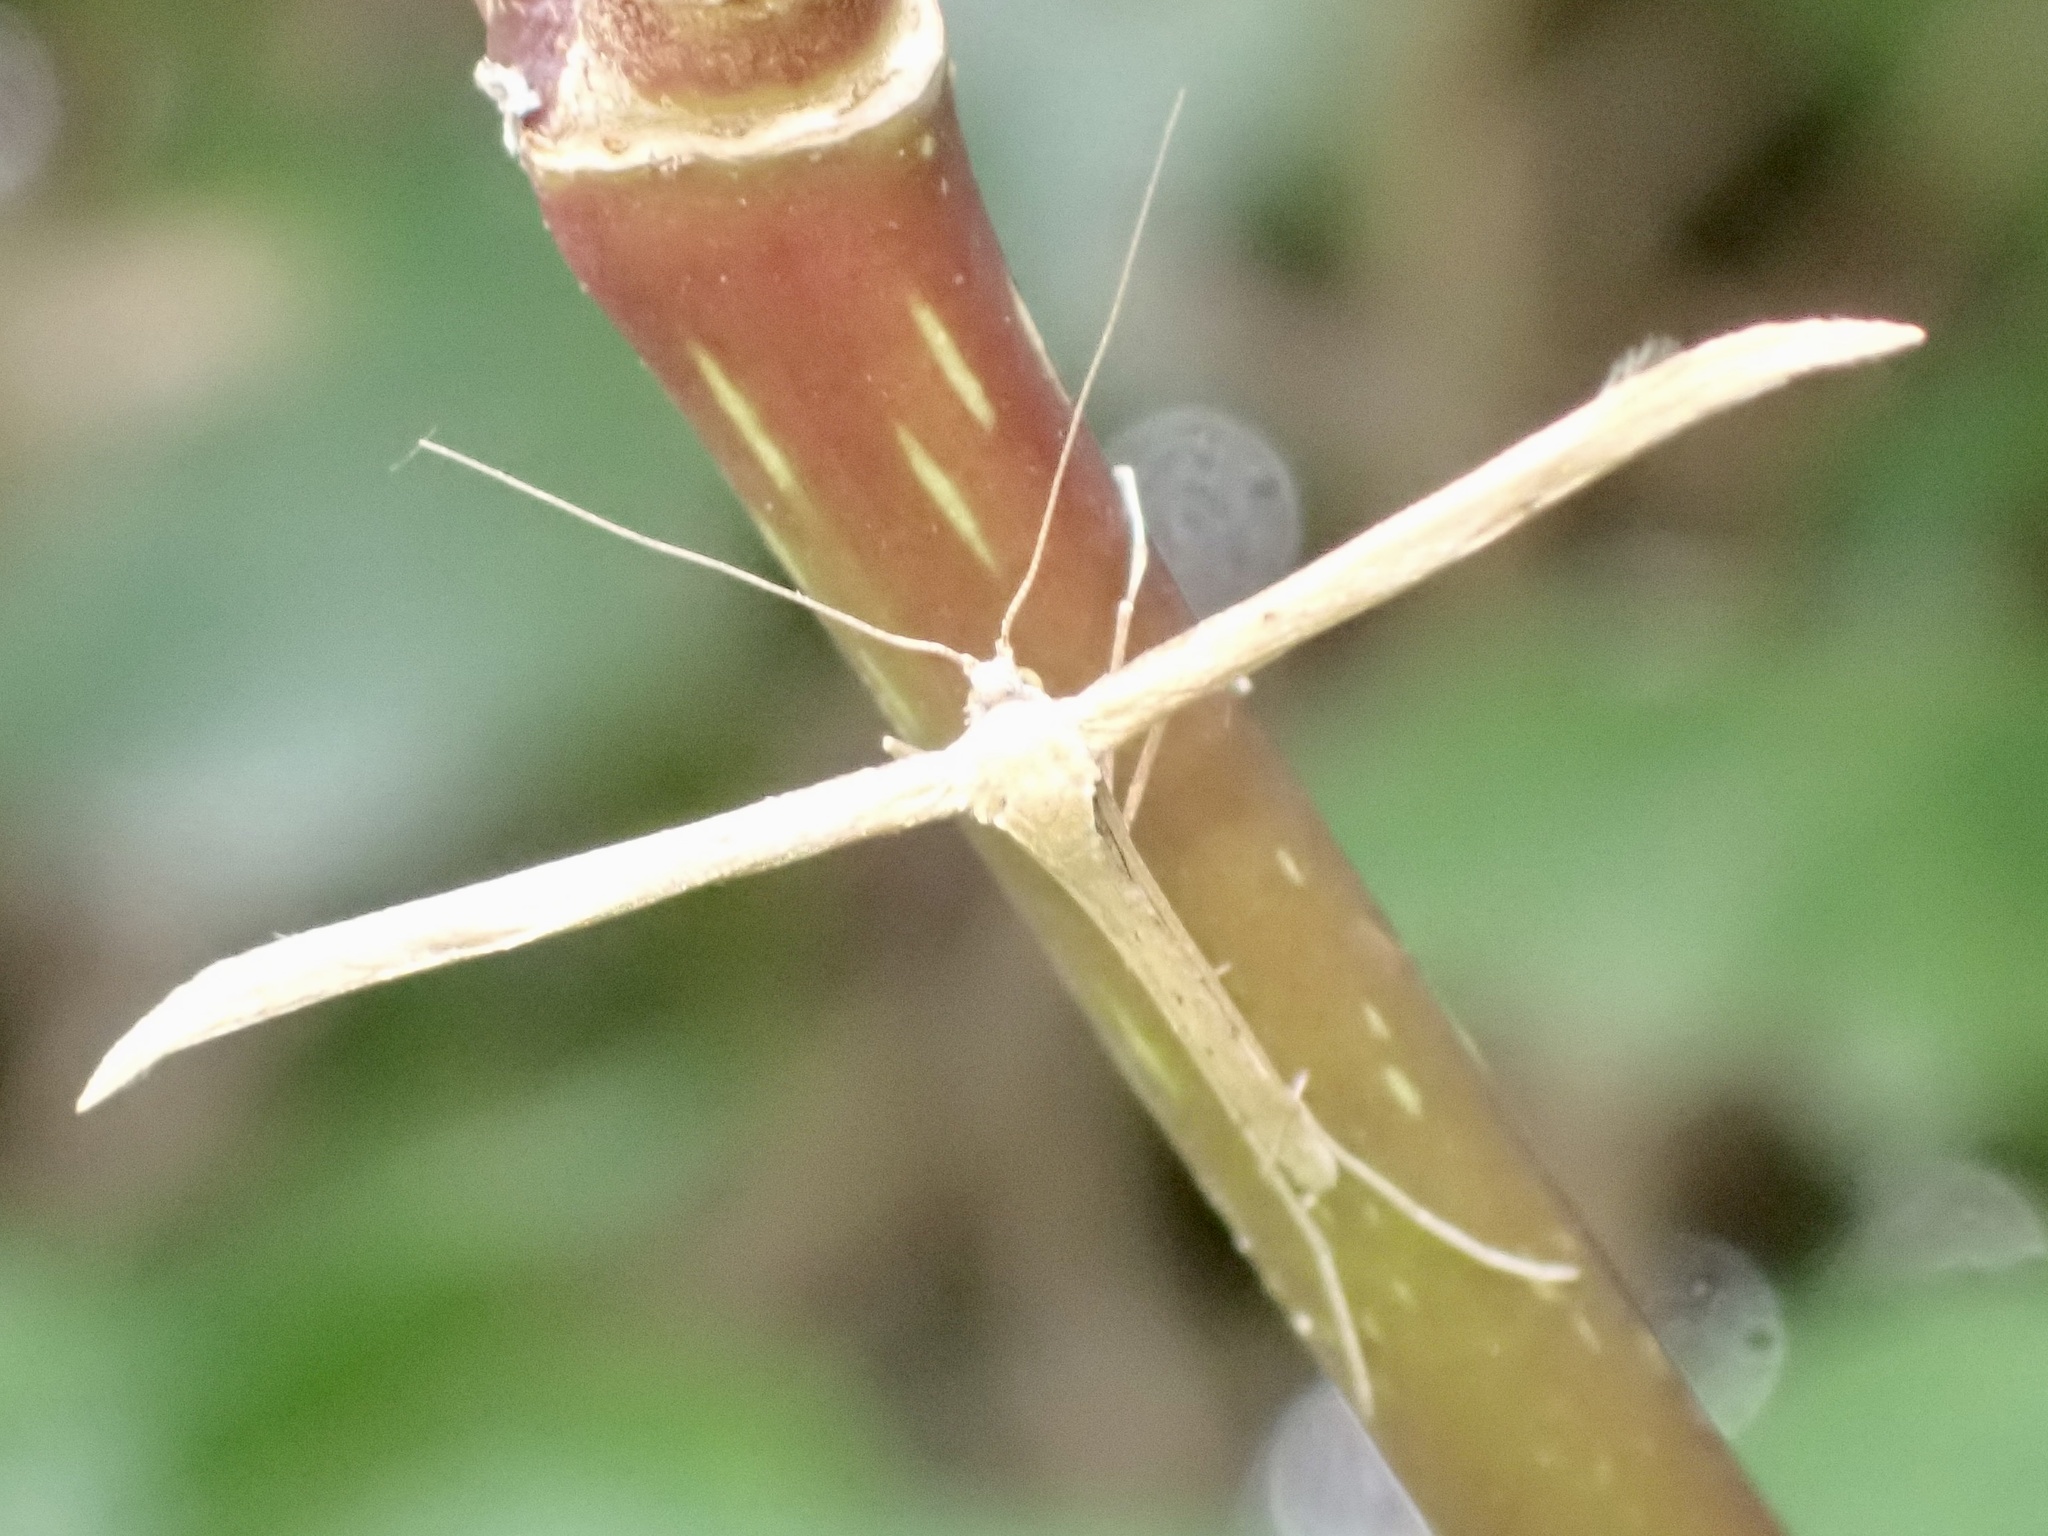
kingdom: Animalia
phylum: Arthropoda
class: Insecta
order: Lepidoptera
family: Pterophoridae
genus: Emmelina
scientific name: Emmelina monodactyla
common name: Common plume
